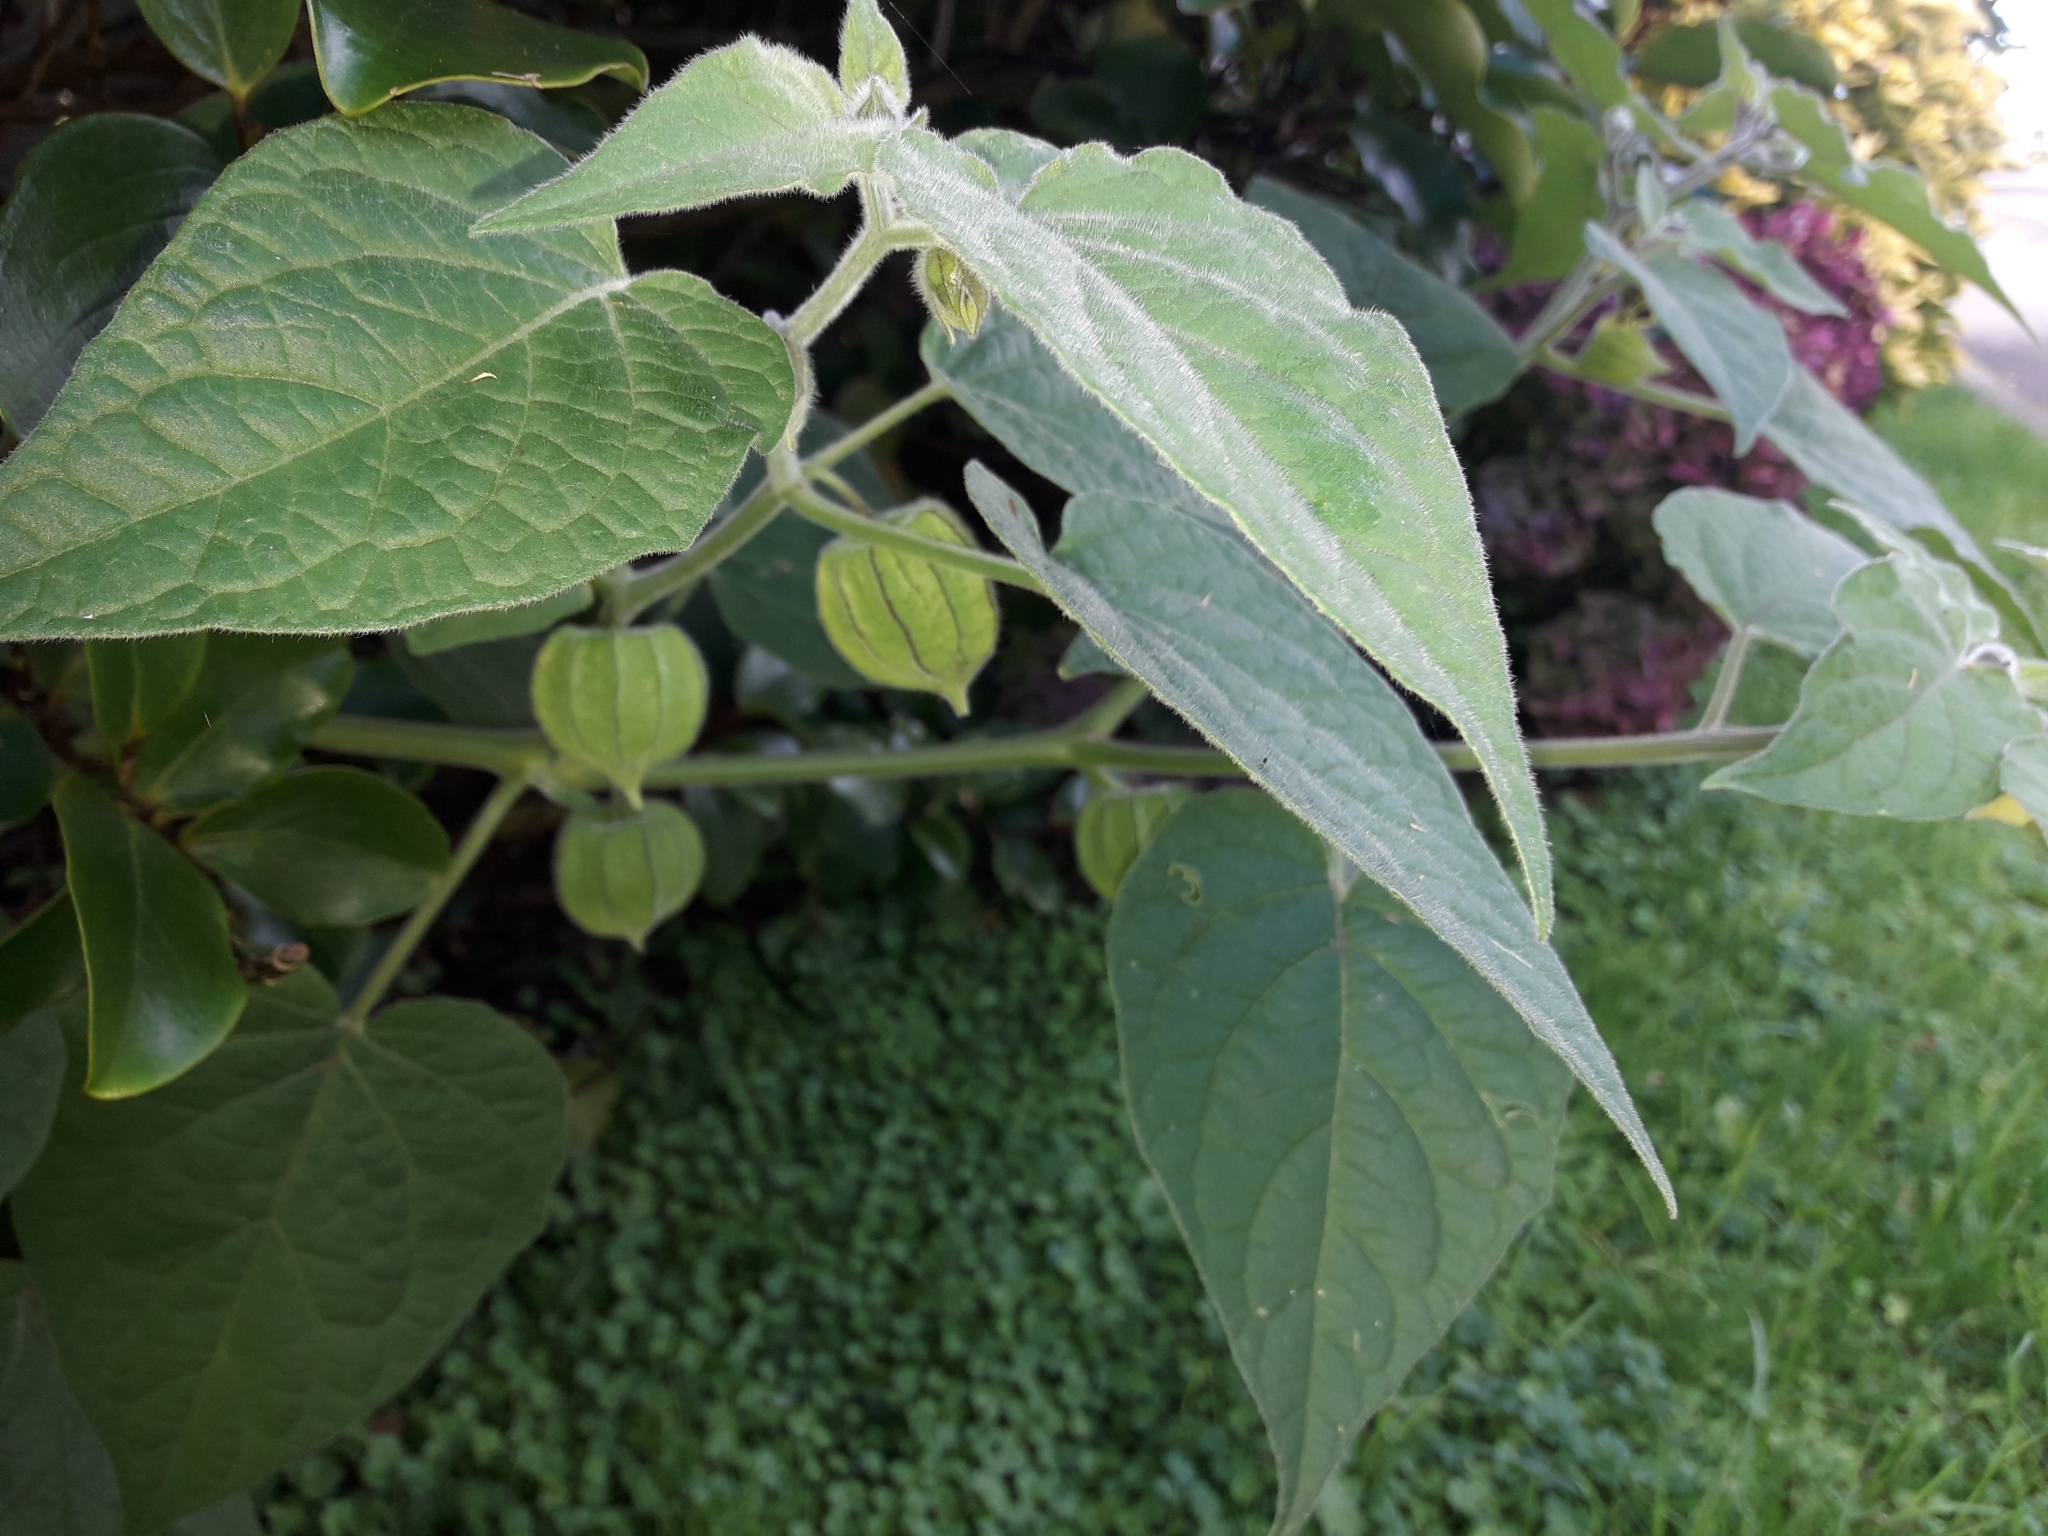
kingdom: Plantae
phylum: Tracheophyta
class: Magnoliopsida
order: Solanales
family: Solanaceae
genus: Physalis
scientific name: Physalis peruviana
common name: Cape-gooseberry
